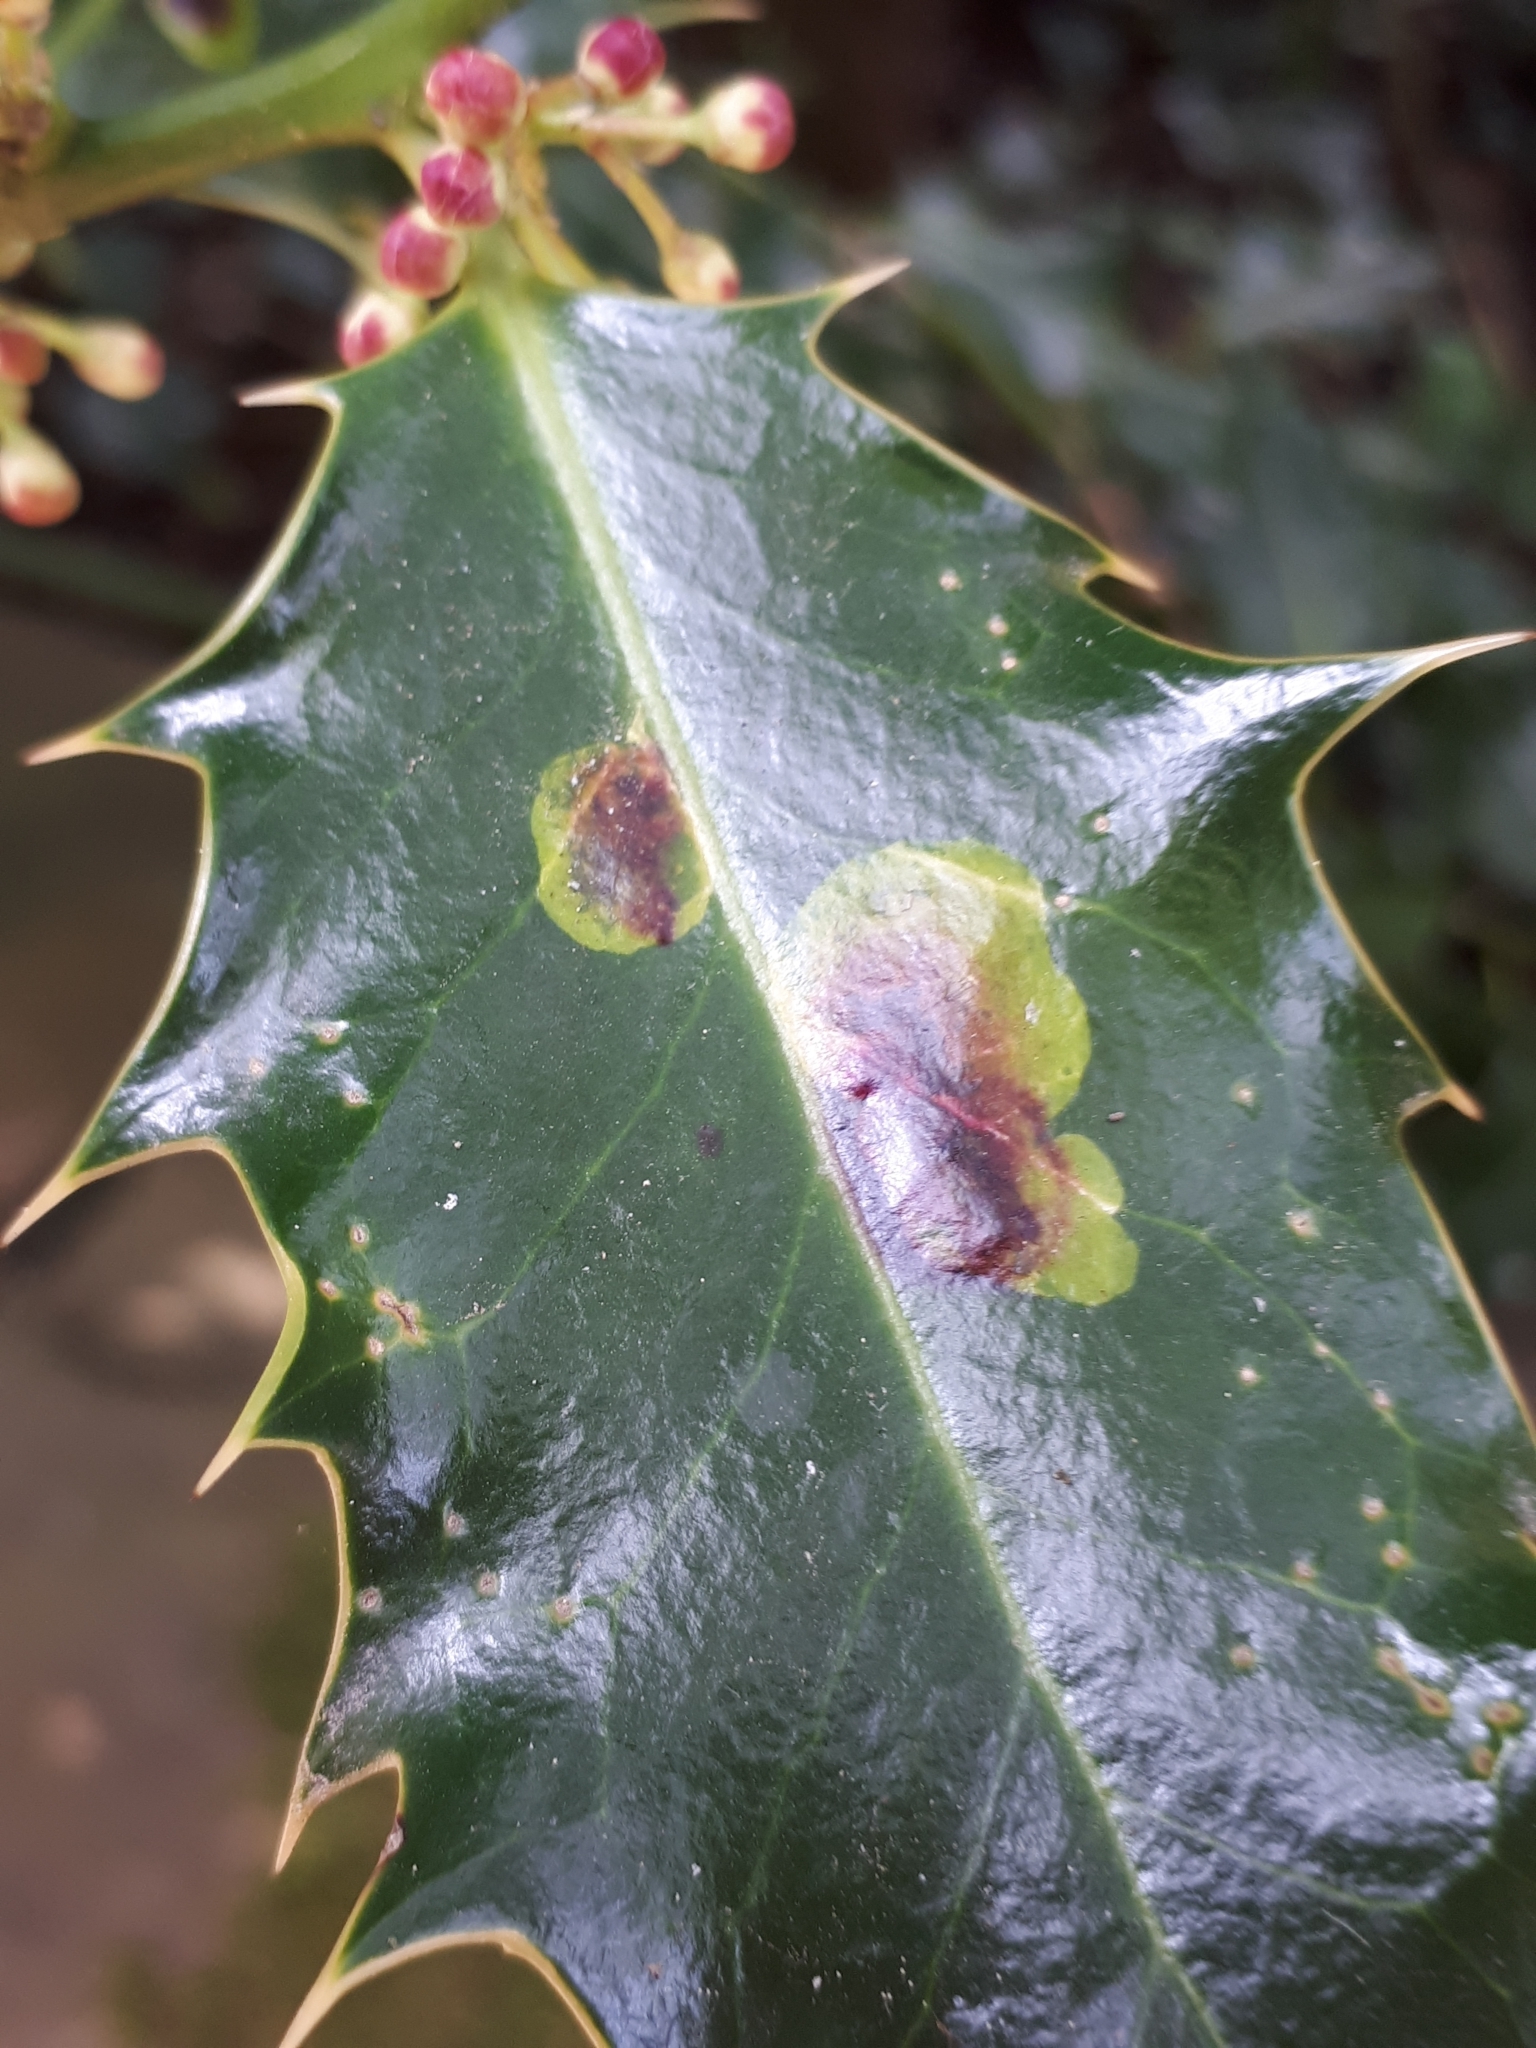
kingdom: Animalia
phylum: Arthropoda
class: Insecta
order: Diptera
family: Agromyzidae
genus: Phytomyza
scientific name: Phytomyza ilicis
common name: Holly leafminer
